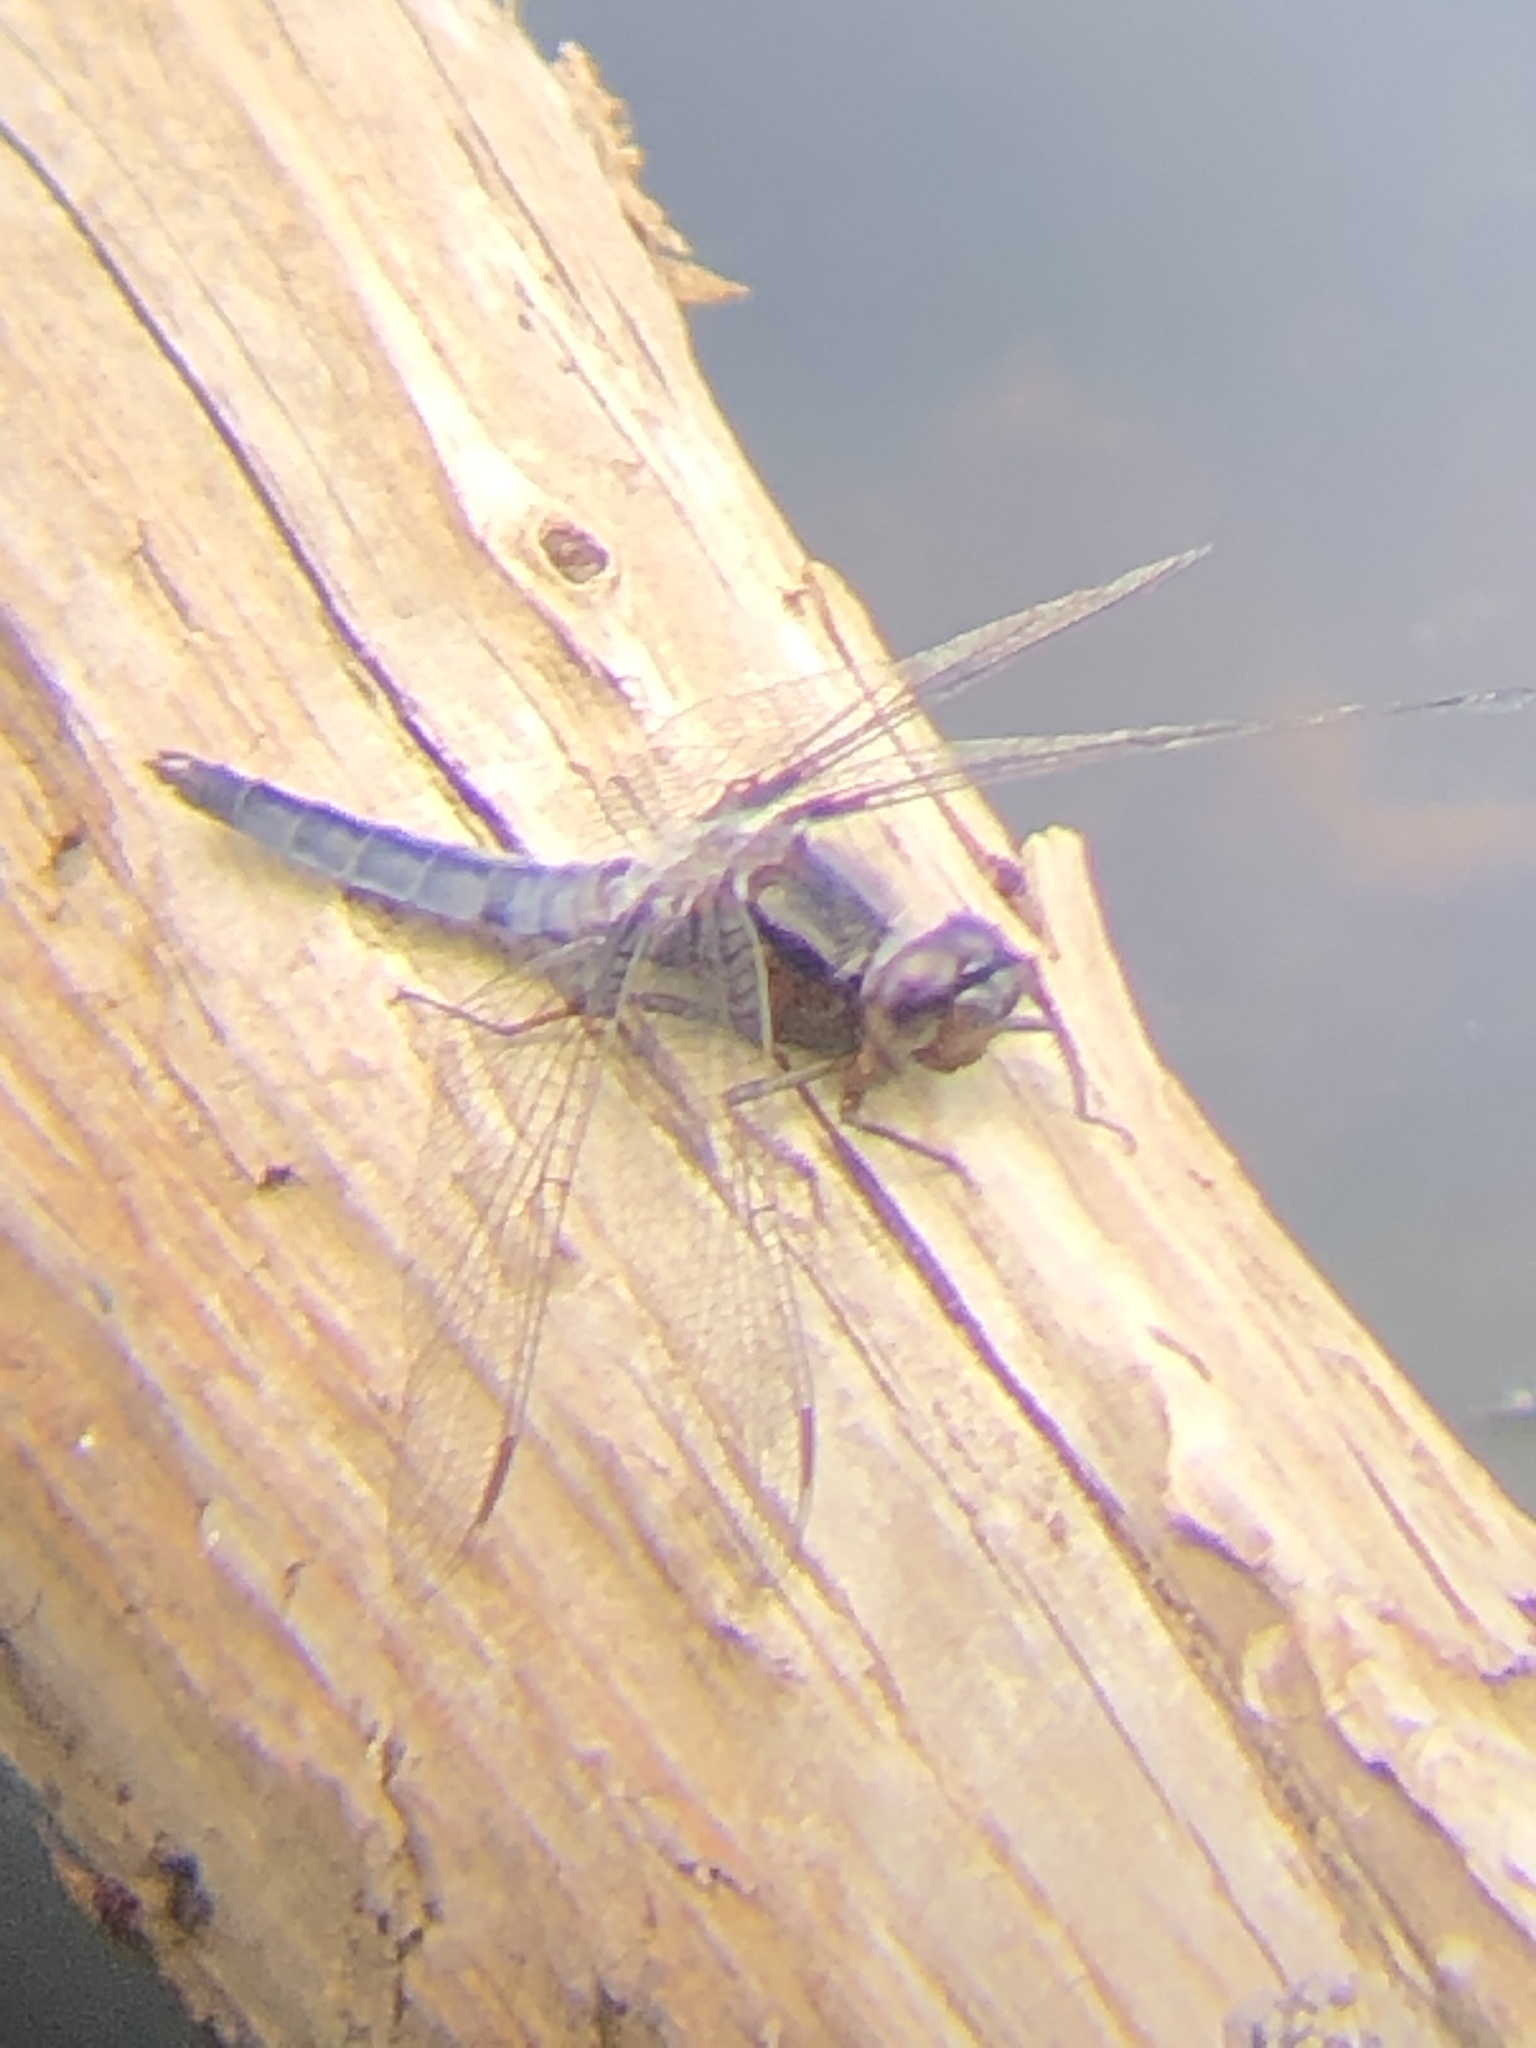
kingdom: Animalia
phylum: Arthropoda
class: Insecta
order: Odonata
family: Libellulidae
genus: Ladona
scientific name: Ladona deplanata
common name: Blue corporal
